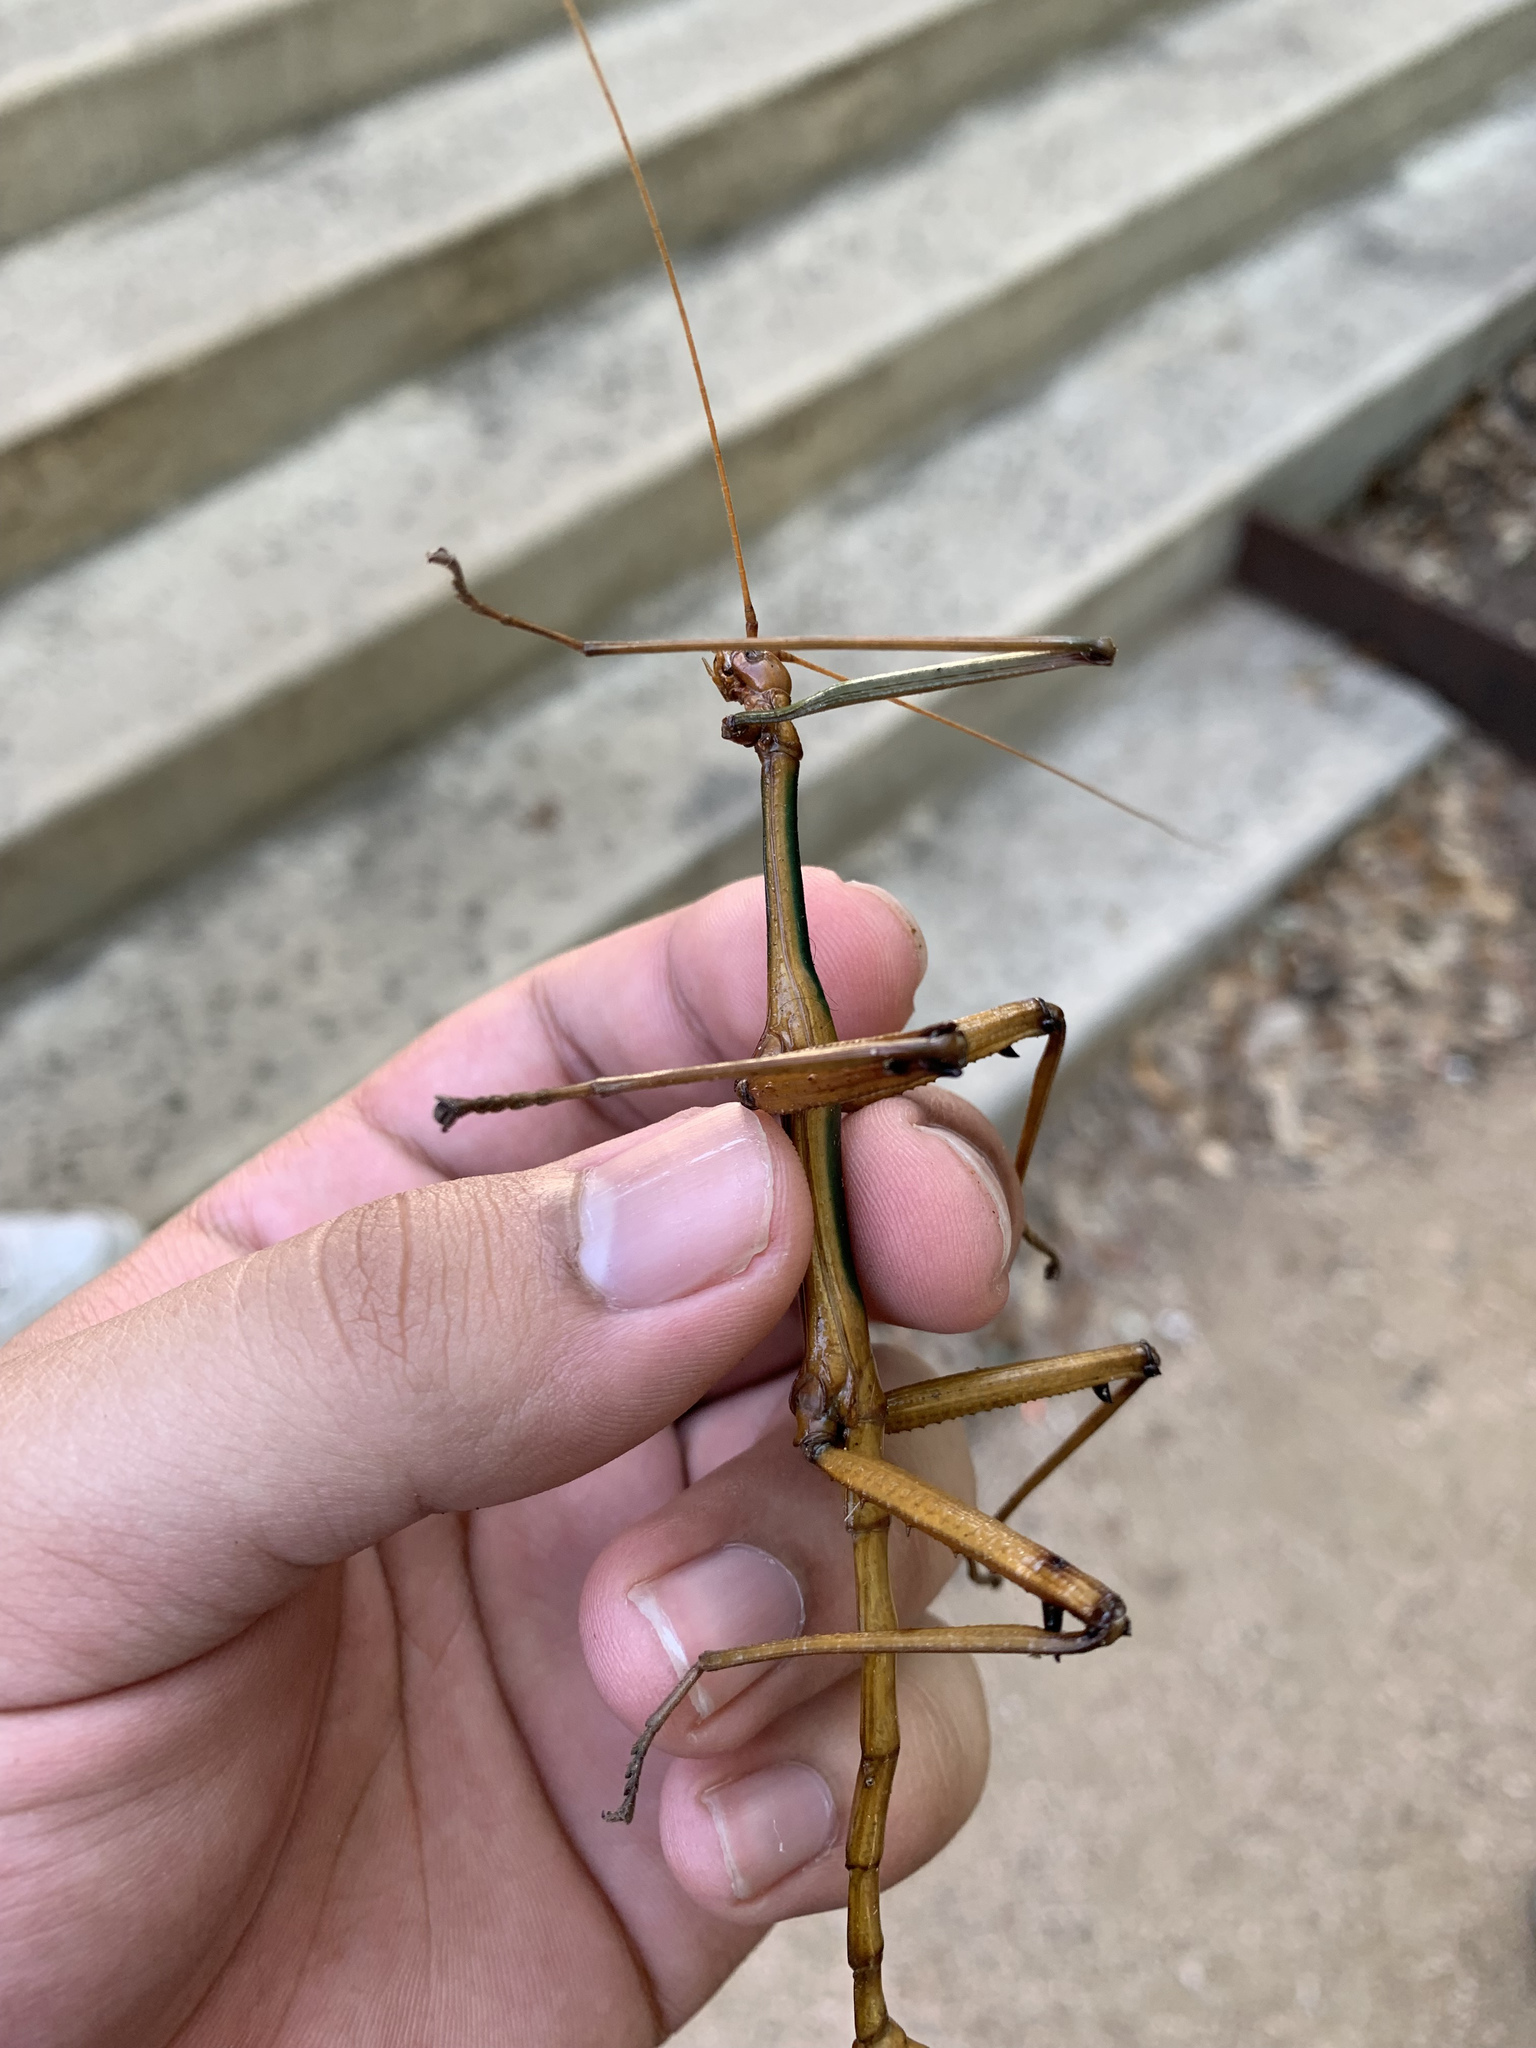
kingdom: Animalia
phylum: Arthropoda
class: Insecta
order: Phasmida
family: Diapheromeridae
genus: Megaphasma
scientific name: Megaphasma denticrus
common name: Giant walkingstick
